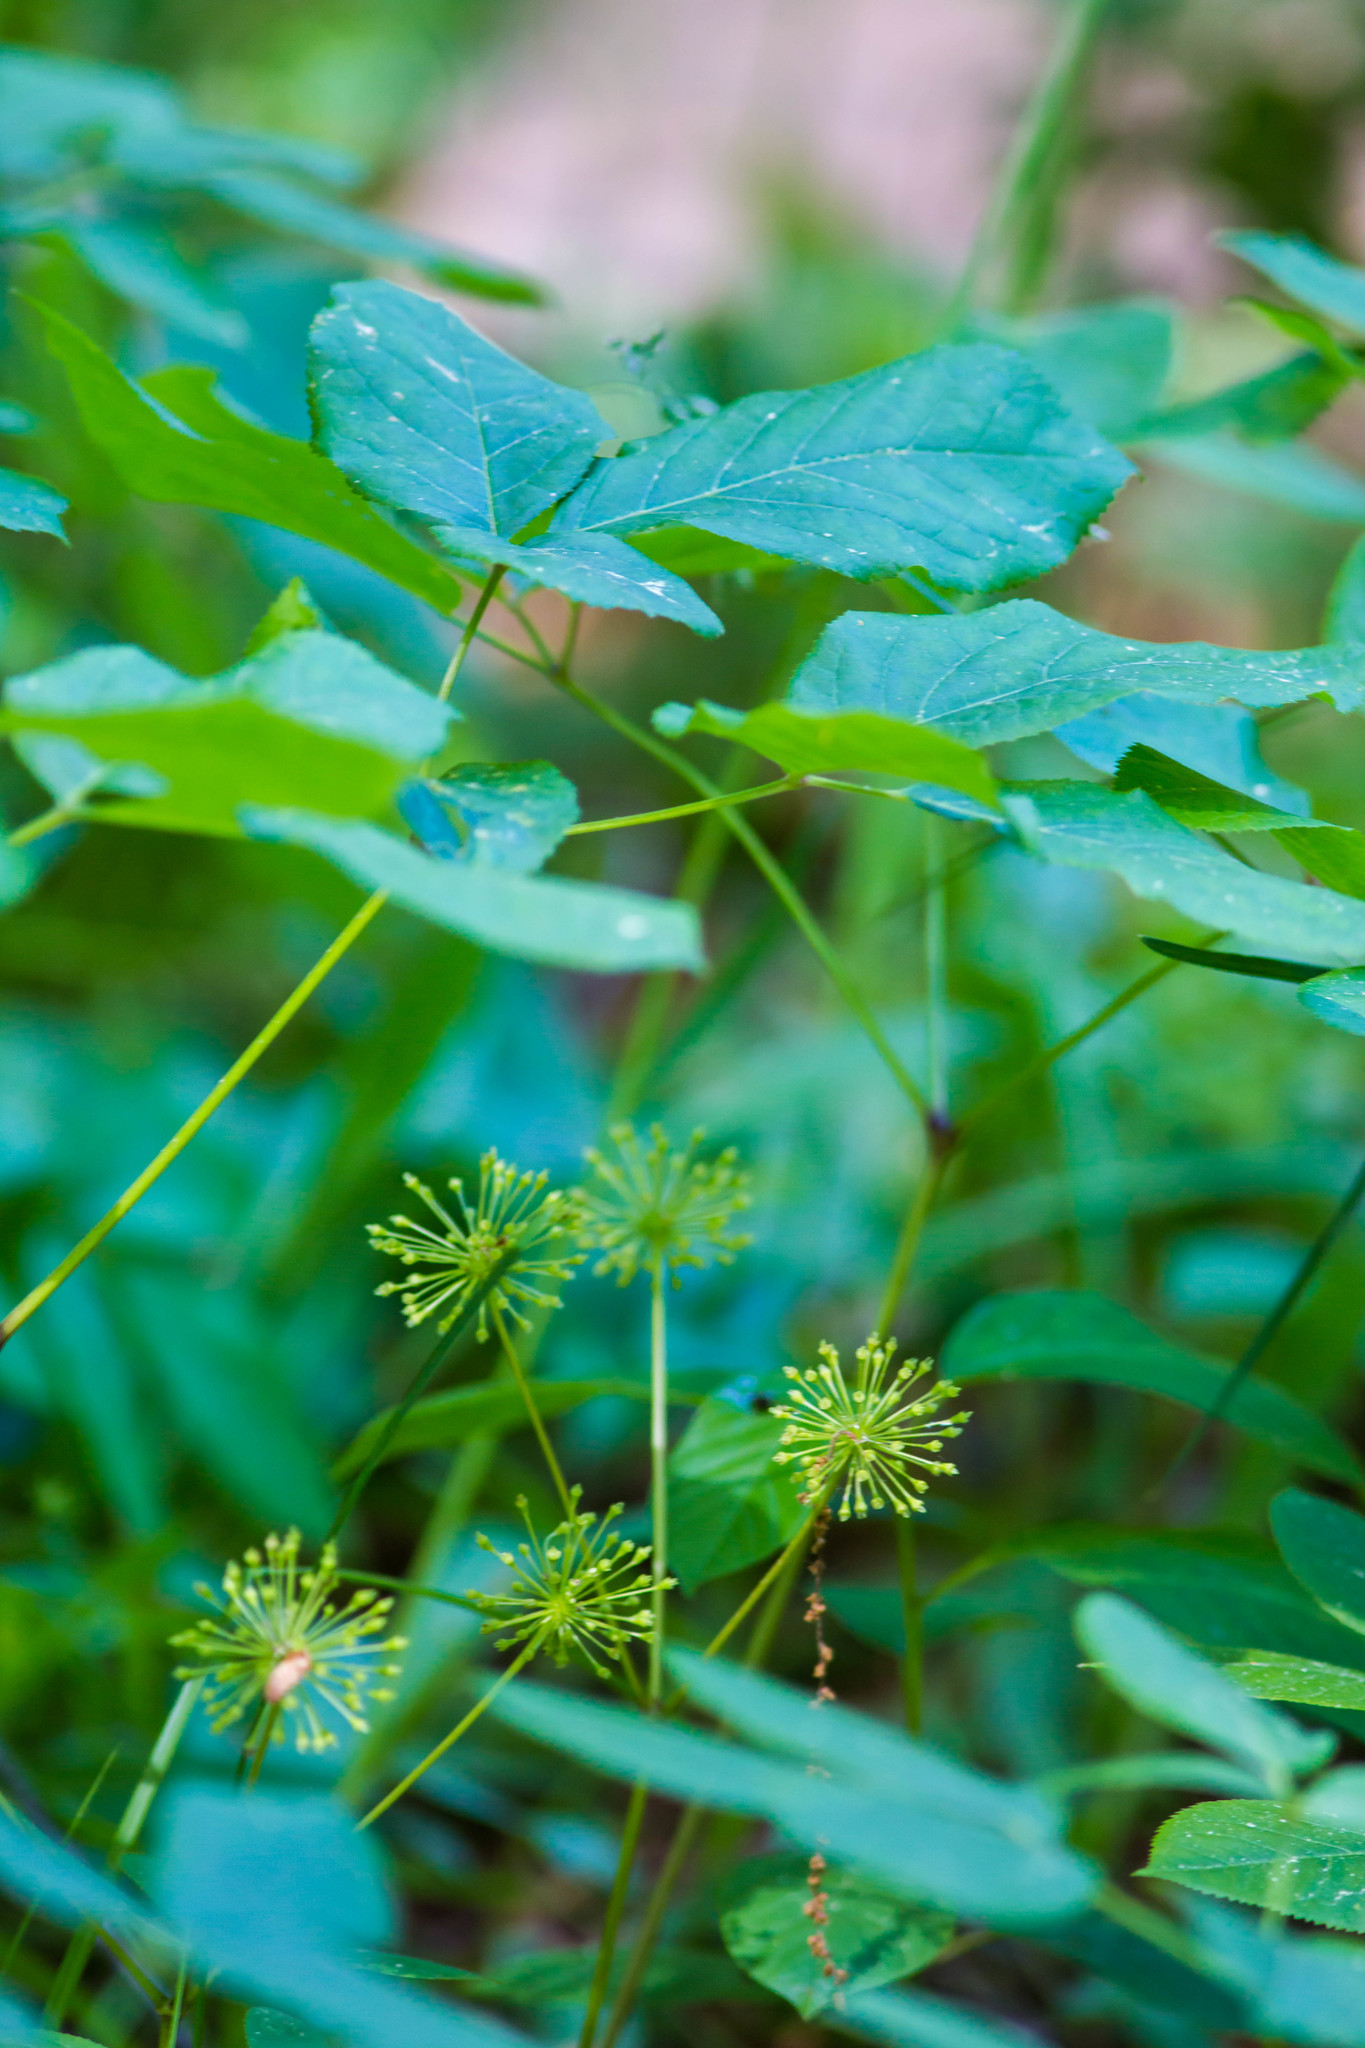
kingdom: Plantae
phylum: Tracheophyta
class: Magnoliopsida
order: Apiales
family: Araliaceae
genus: Aralia
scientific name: Aralia nudicaulis
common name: Wild sarsaparilla
